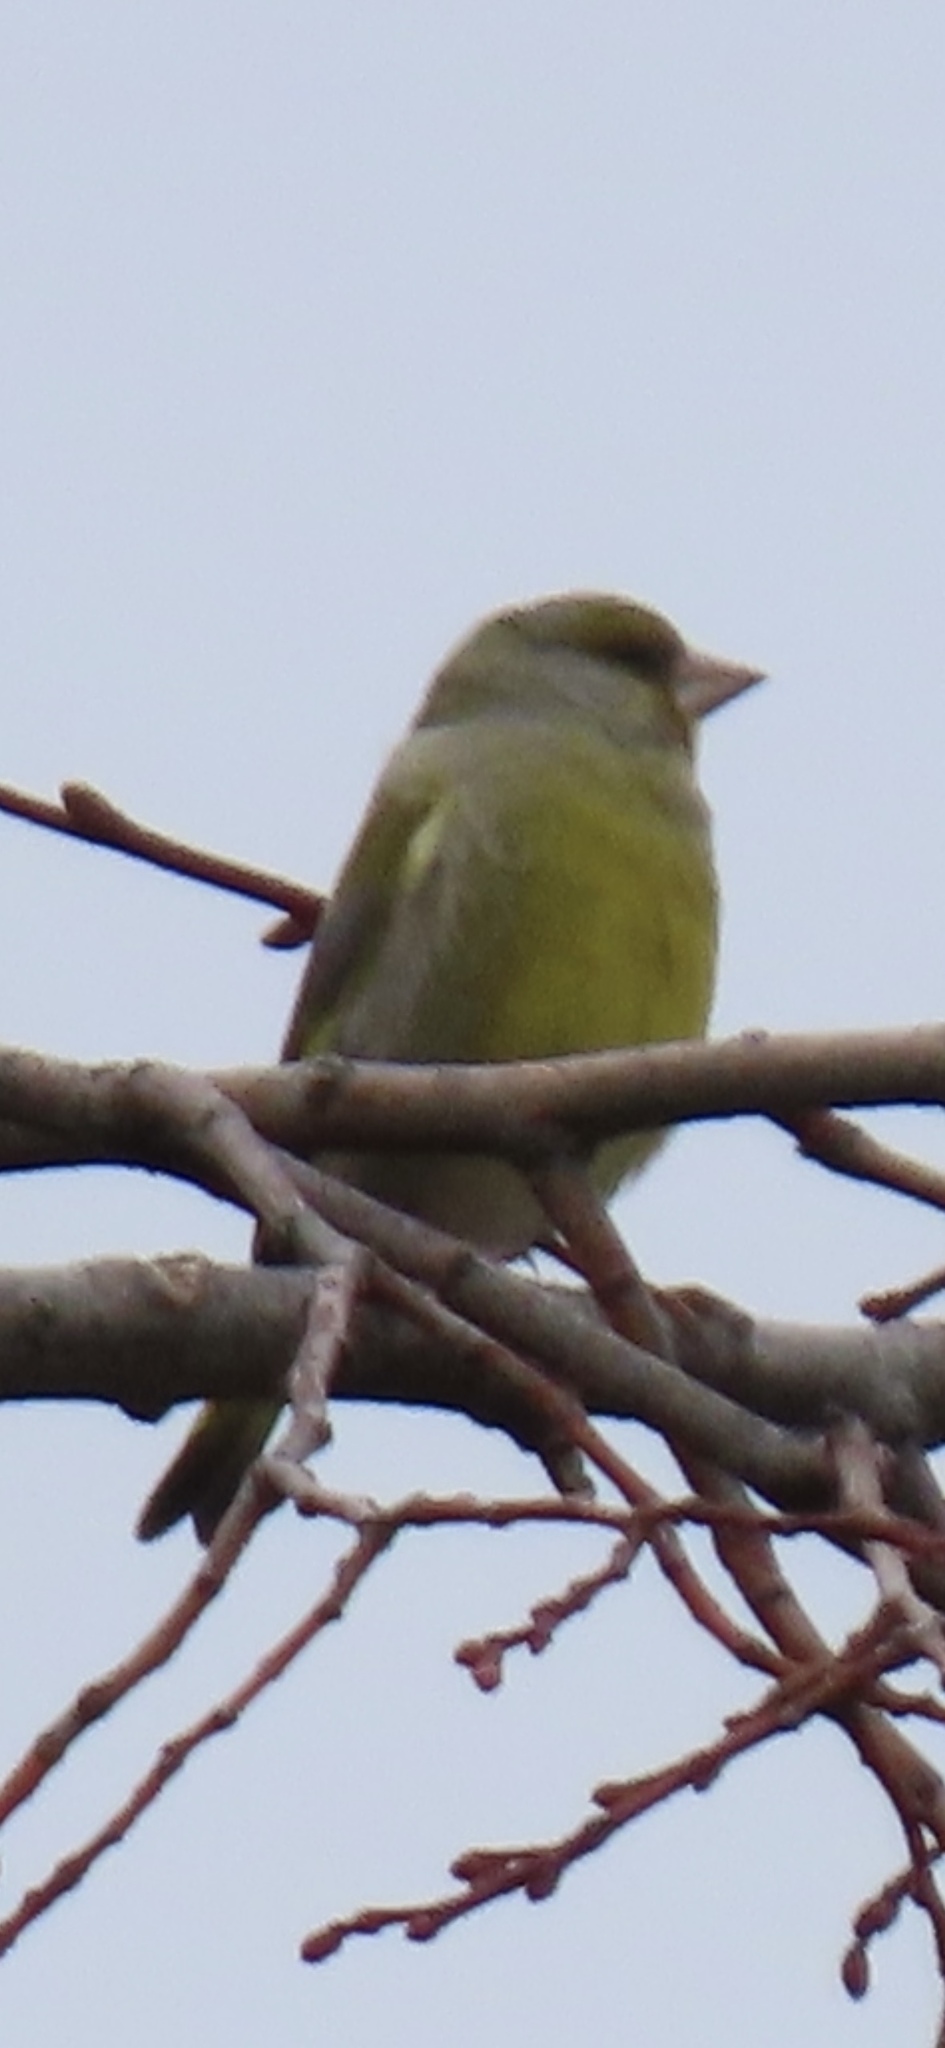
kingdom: Plantae
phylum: Tracheophyta
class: Liliopsida
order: Poales
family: Poaceae
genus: Chloris
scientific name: Chloris chloris
